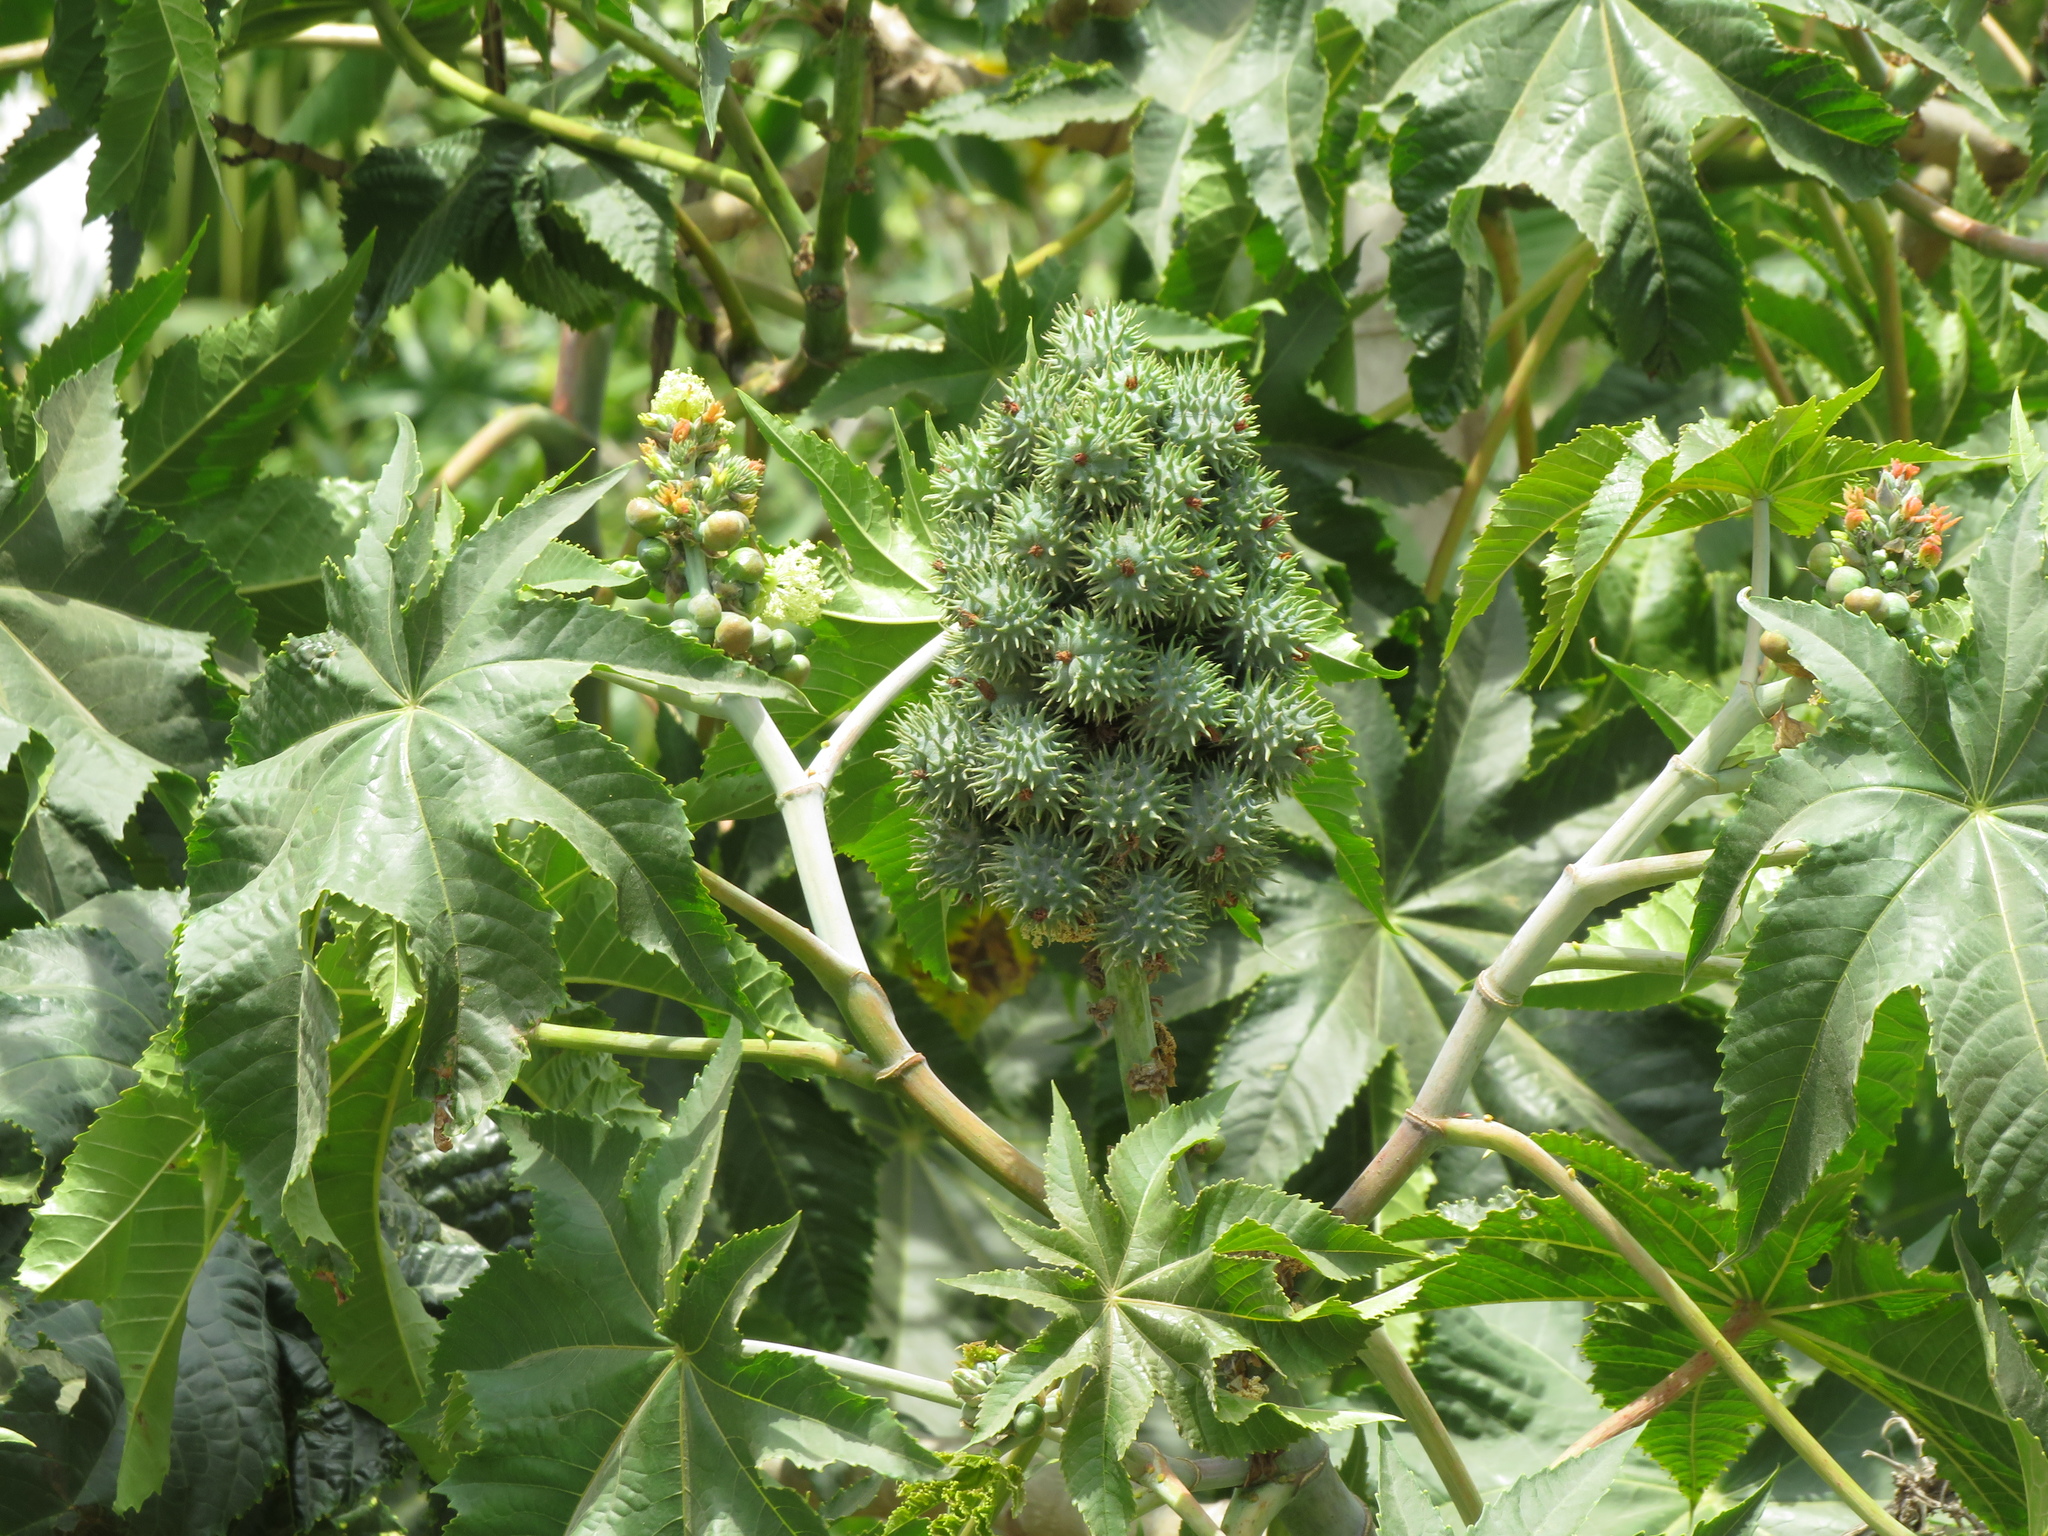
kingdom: Plantae
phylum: Tracheophyta
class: Magnoliopsida
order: Malpighiales
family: Euphorbiaceae
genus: Ricinus
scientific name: Ricinus communis
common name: Castor-oil-plant
